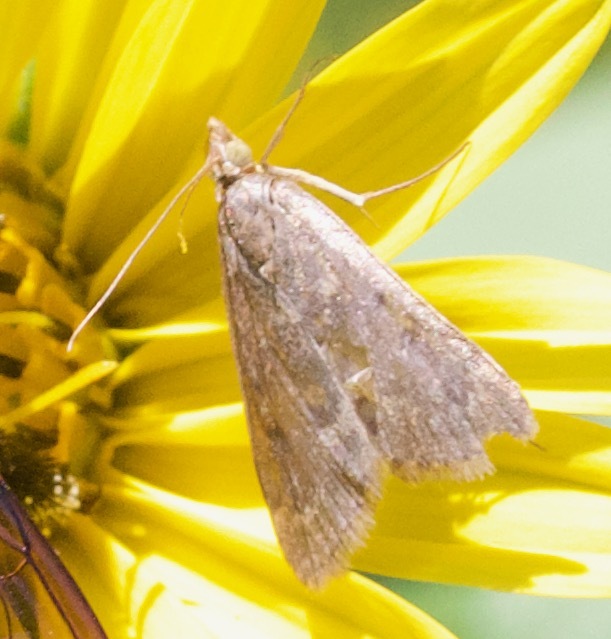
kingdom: Animalia
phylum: Arthropoda
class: Insecta
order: Lepidoptera
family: Crambidae
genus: Achyra
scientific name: Achyra rantalis
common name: Garden webworm
